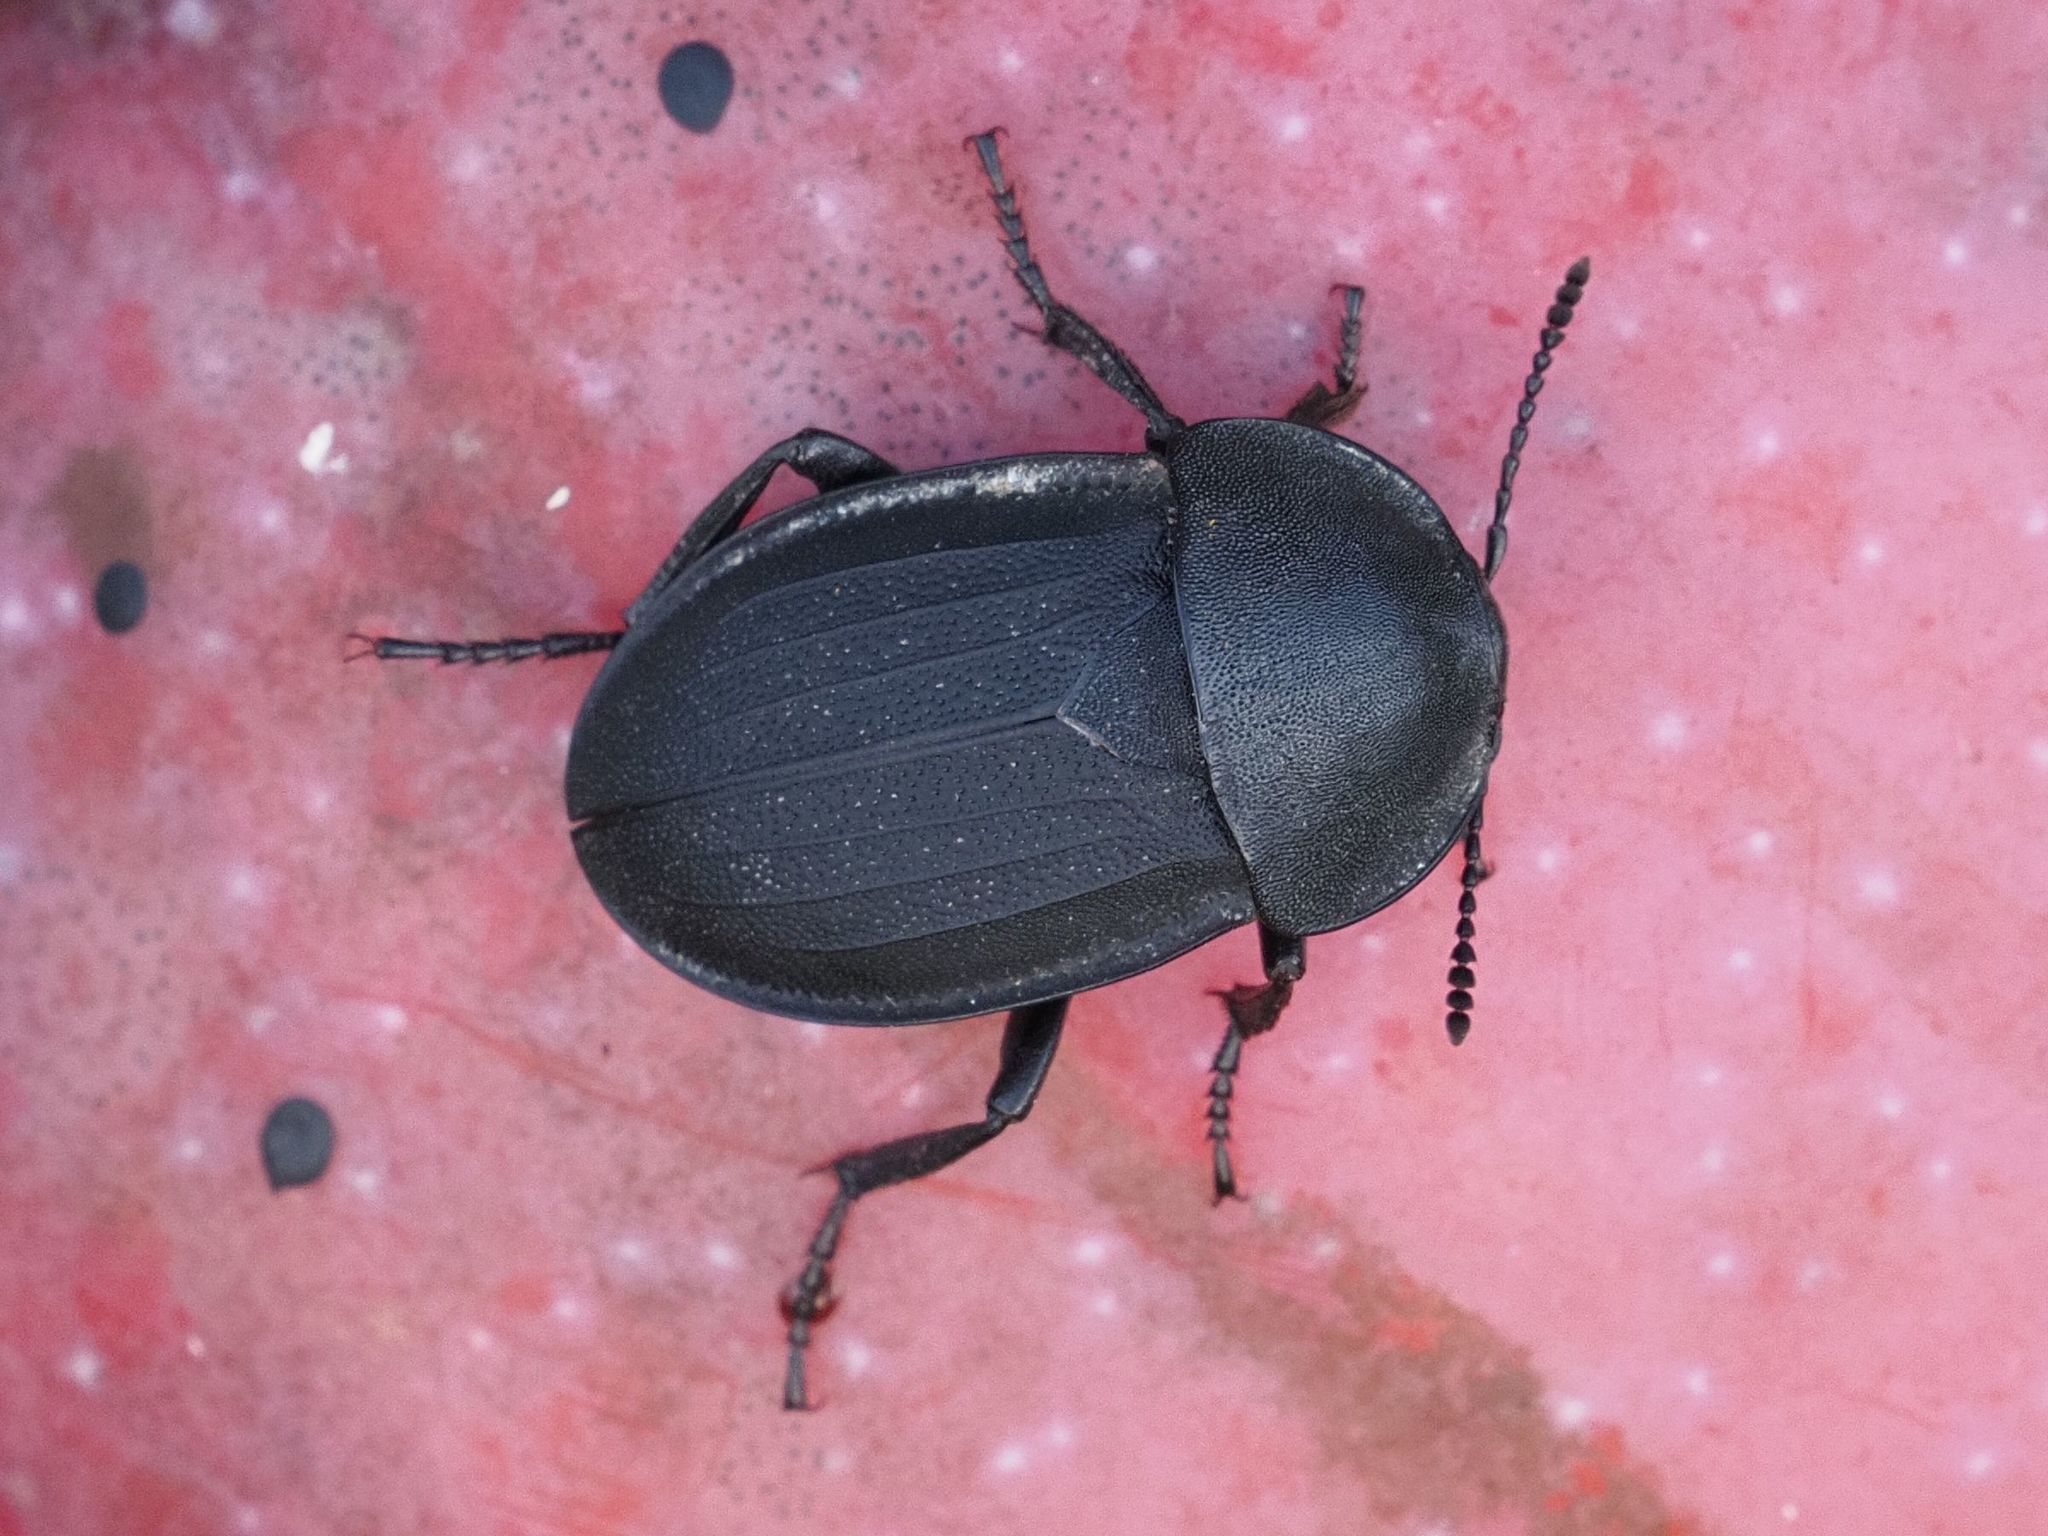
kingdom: Animalia
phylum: Arthropoda
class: Insecta
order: Coleoptera
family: Staphylinidae
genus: Silpha
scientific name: Silpha obscura
